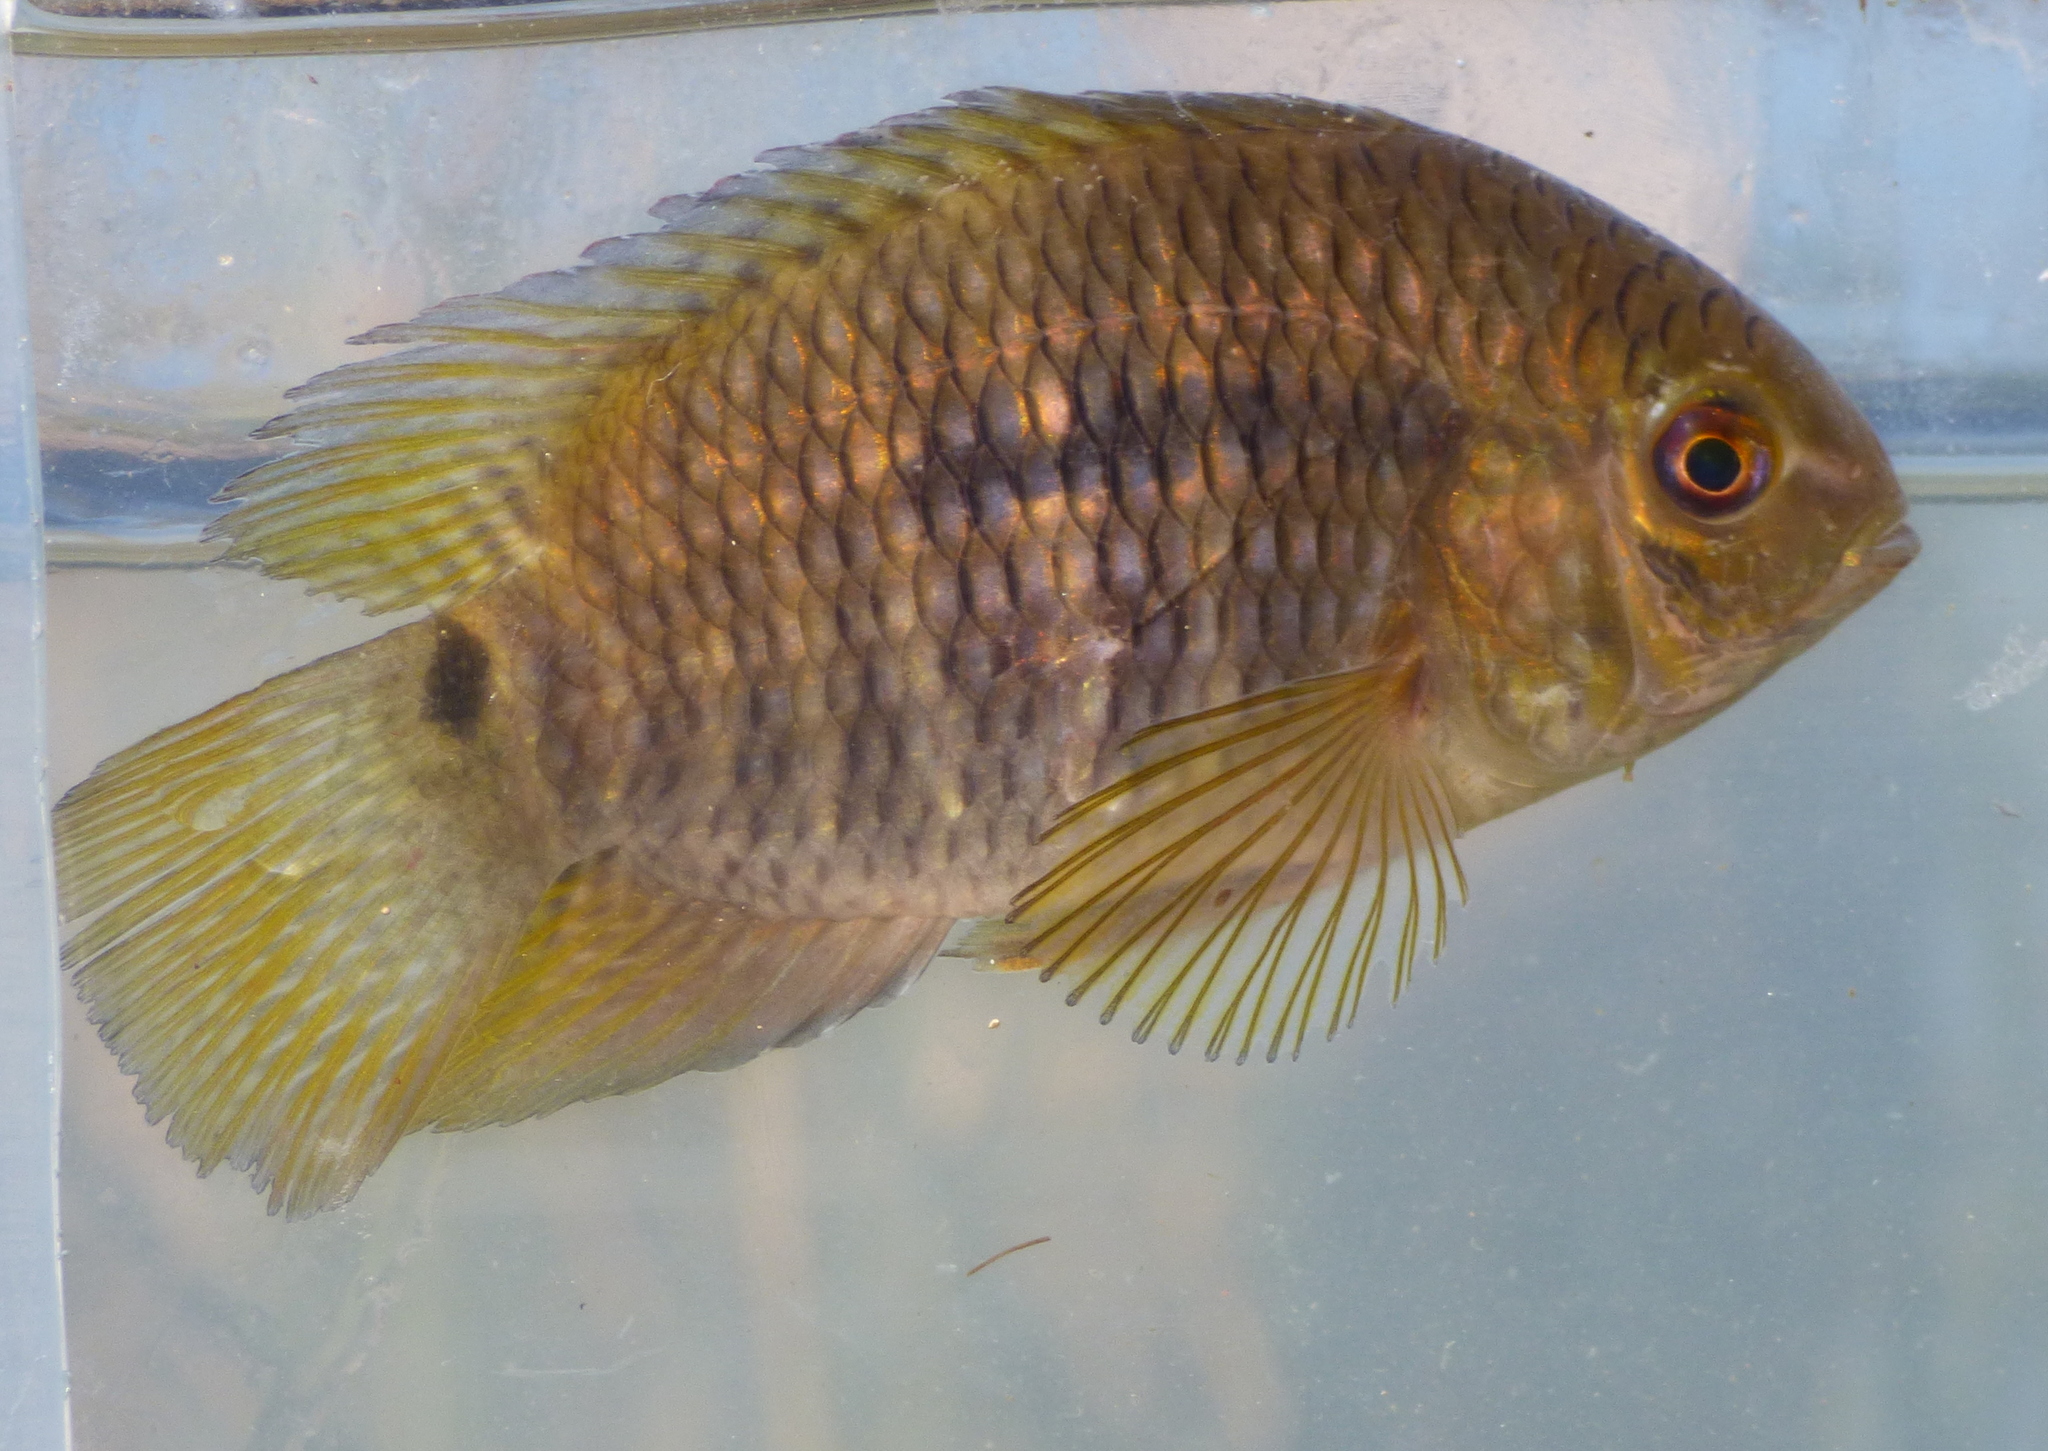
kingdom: Animalia
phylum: Chordata
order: Perciformes
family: Cichlidae
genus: Cichlasoma
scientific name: Cichlasoma dimerus
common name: Chanchita
